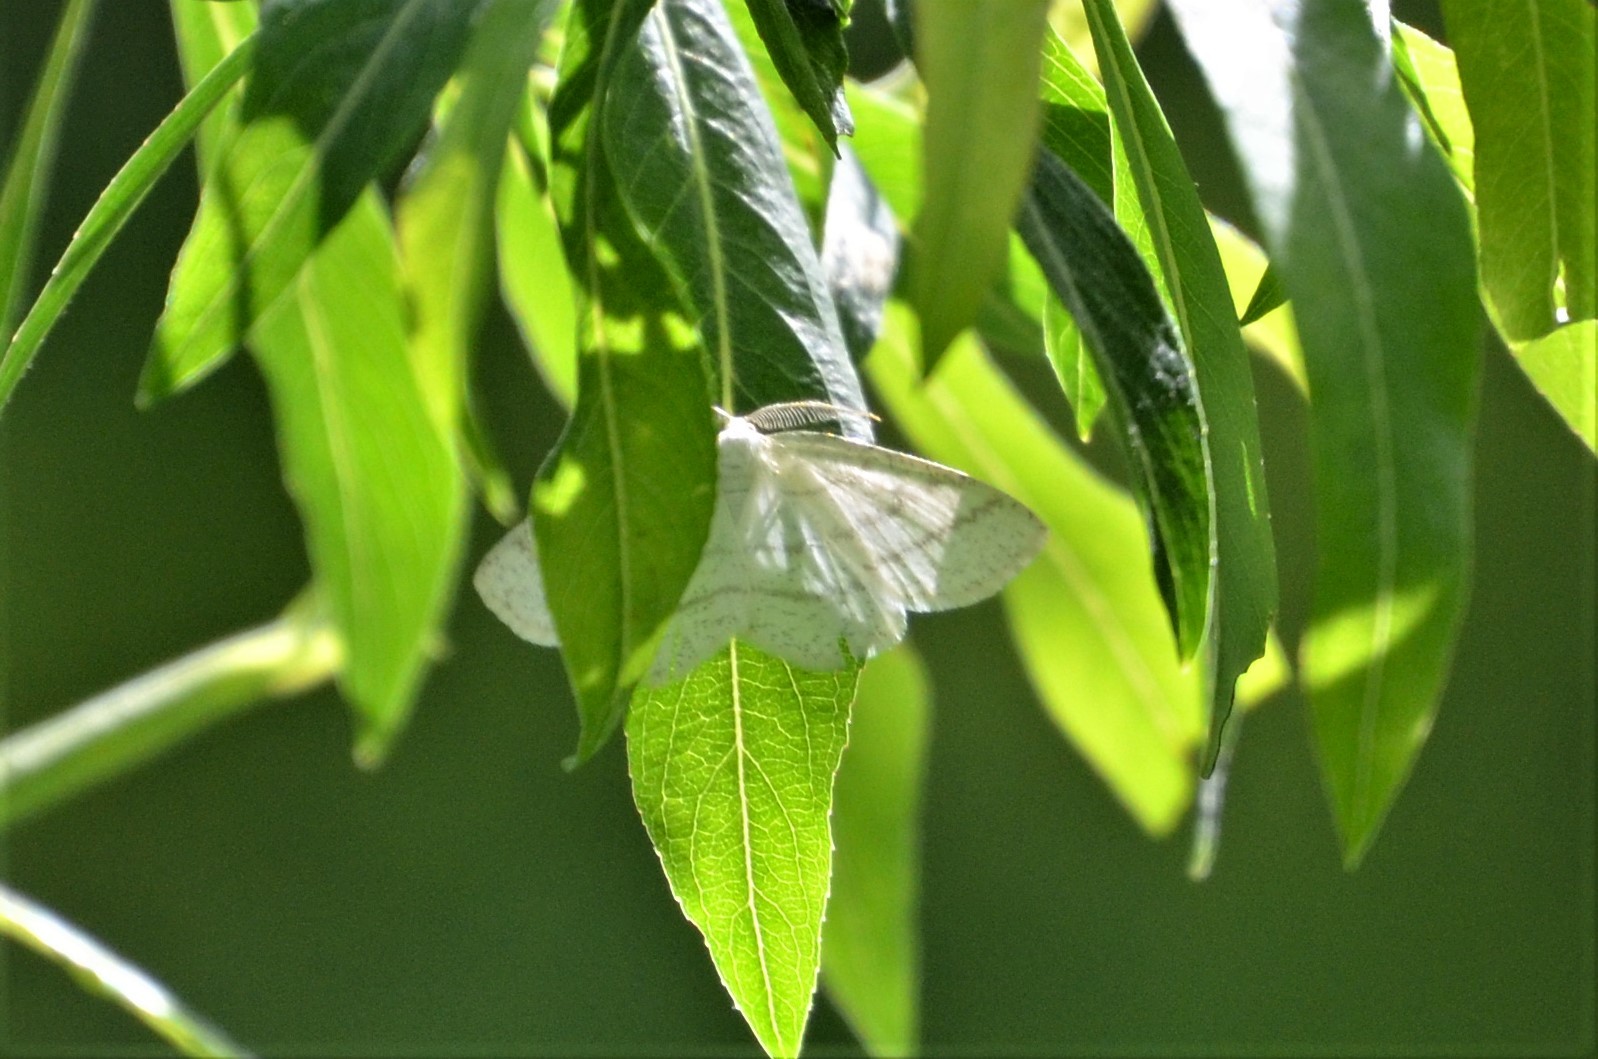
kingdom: Animalia
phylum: Arthropoda
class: Insecta
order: Lepidoptera
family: Geometridae
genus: Cabera
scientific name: Cabera pusaria
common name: Common white wave
